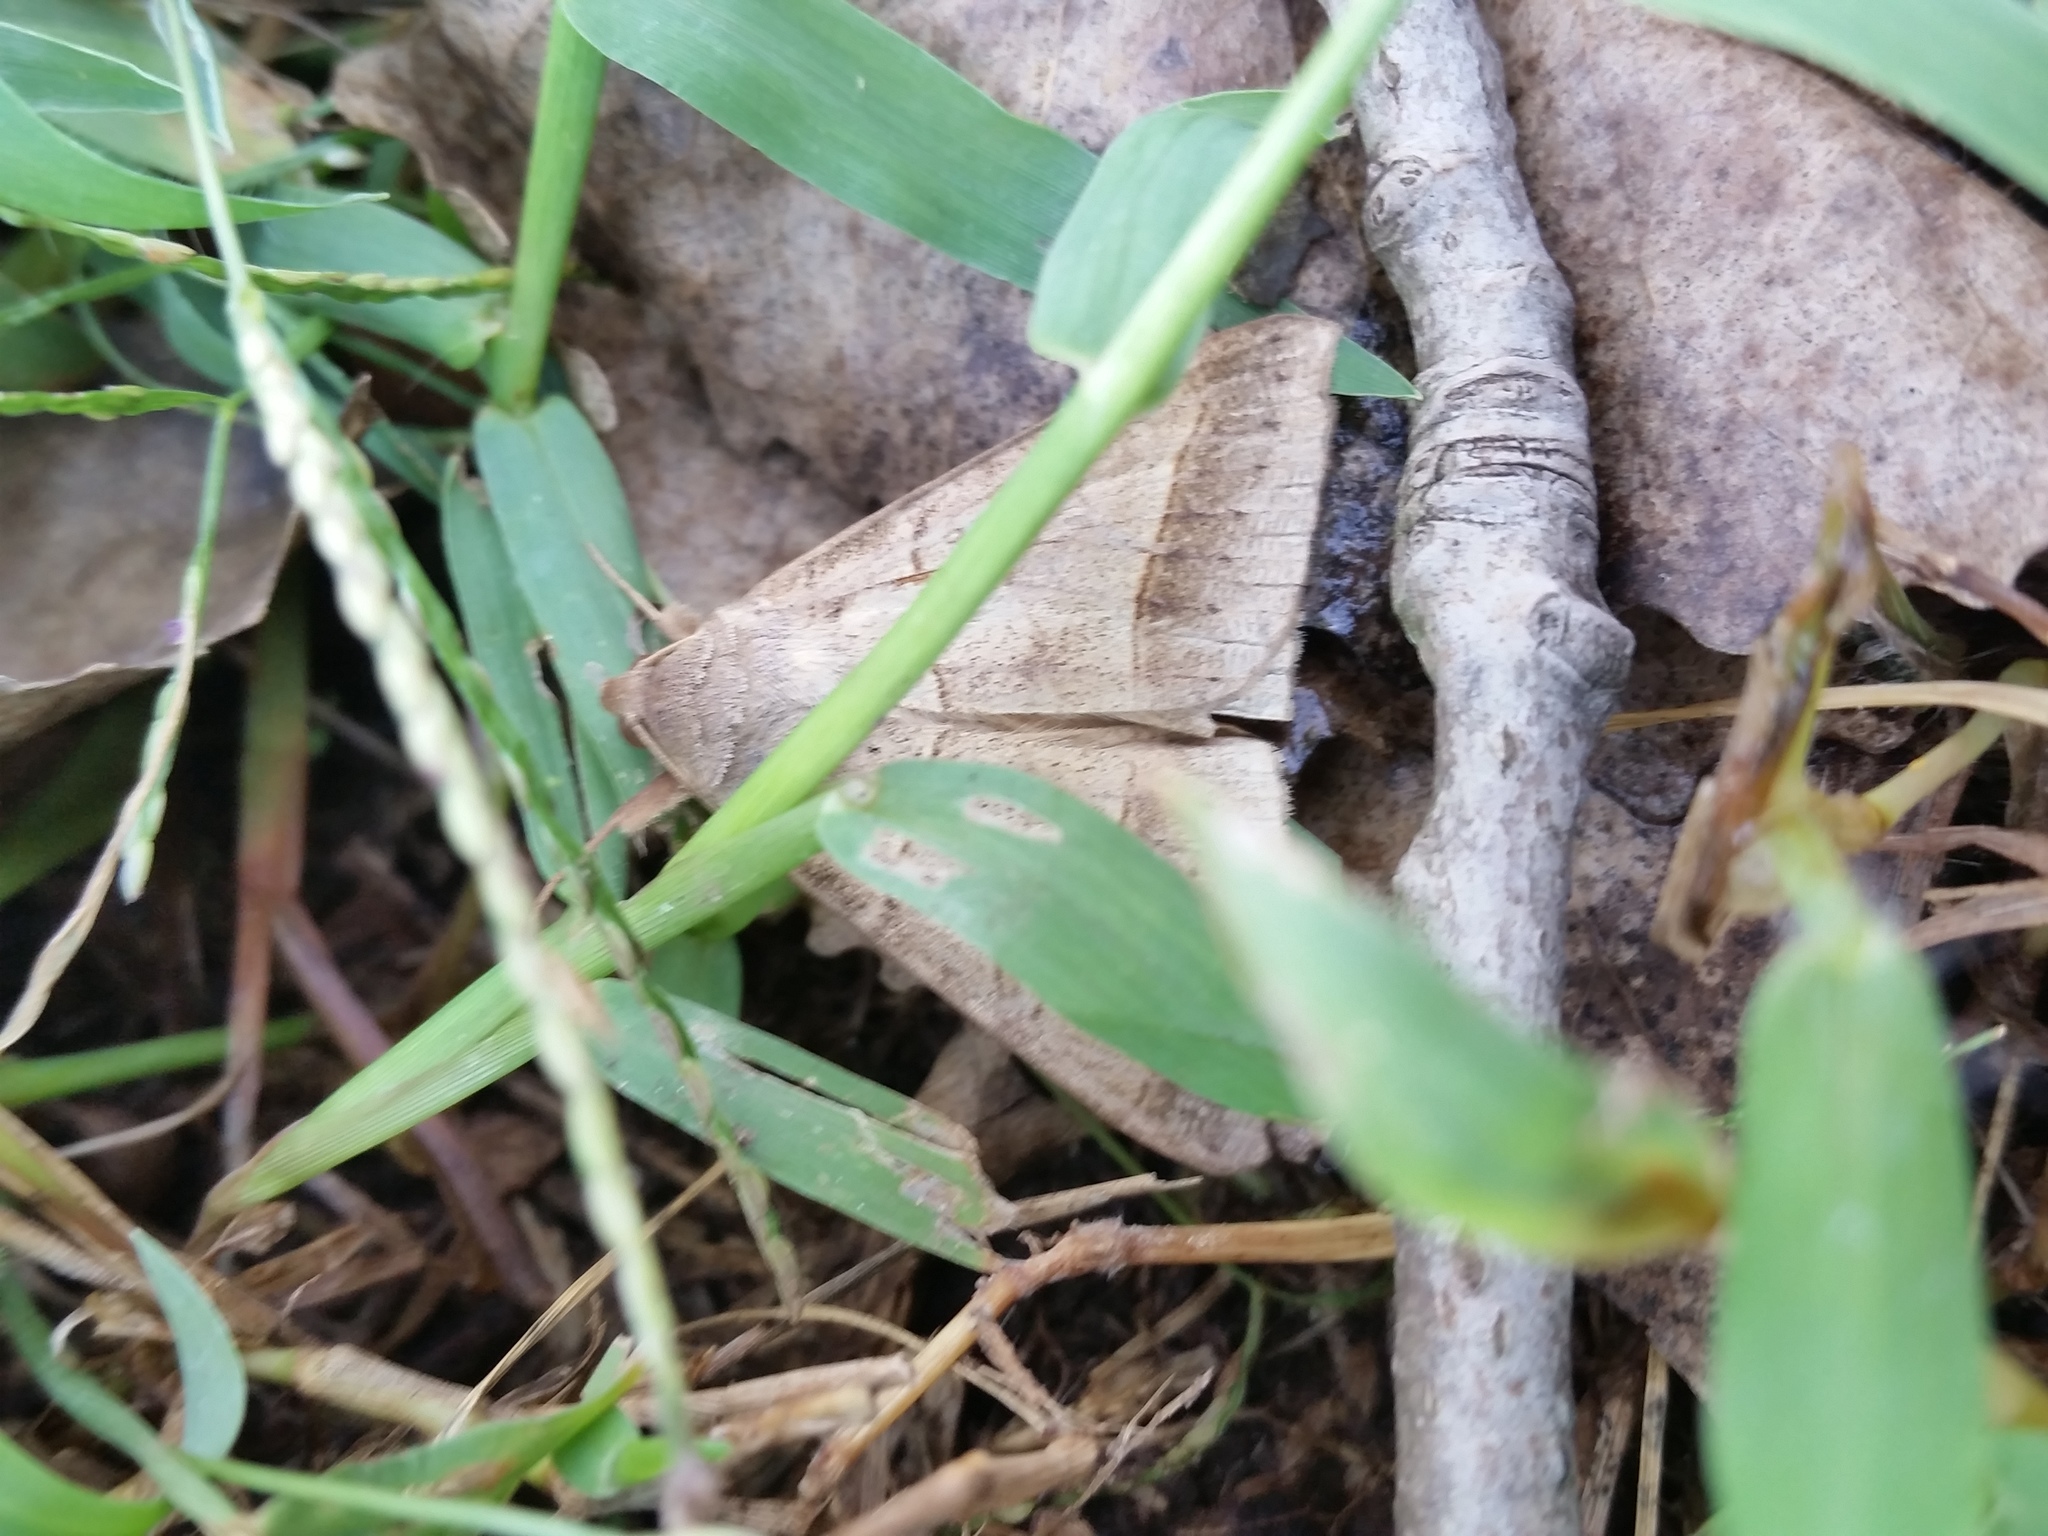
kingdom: Animalia
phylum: Arthropoda
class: Insecta
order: Lepidoptera
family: Erebidae
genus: Mocis
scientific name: Mocis texana
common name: Texas mocis moth
